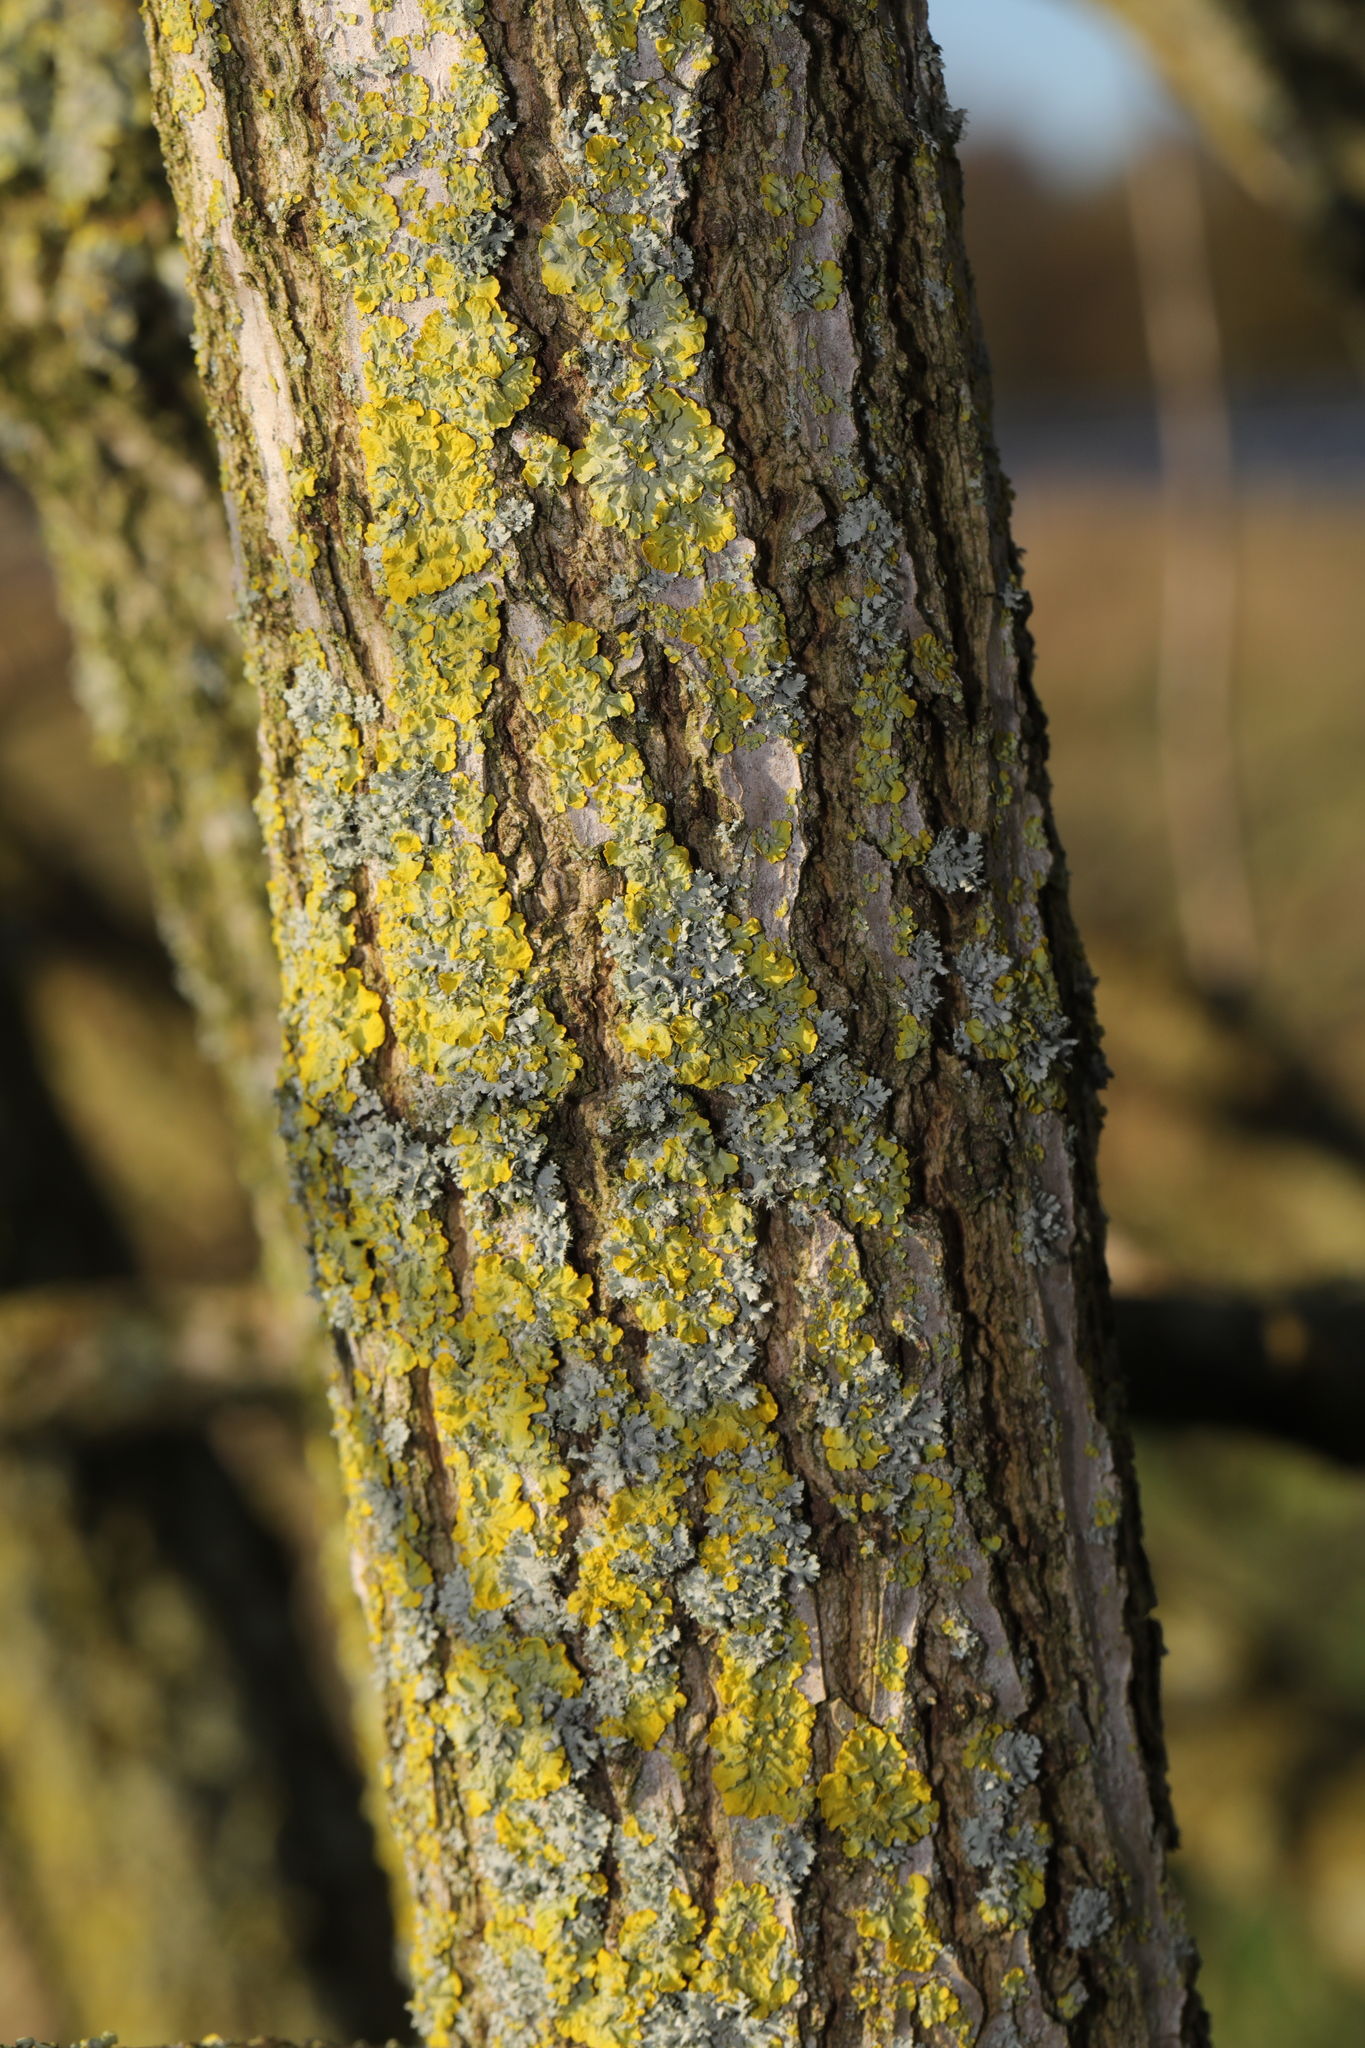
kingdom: Fungi
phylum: Ascomycota
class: Lecanoromycetes
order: Teloschistales
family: Teloschistaceae
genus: Xanthoria
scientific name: Xanthoria parietina
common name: Common orange lichen
